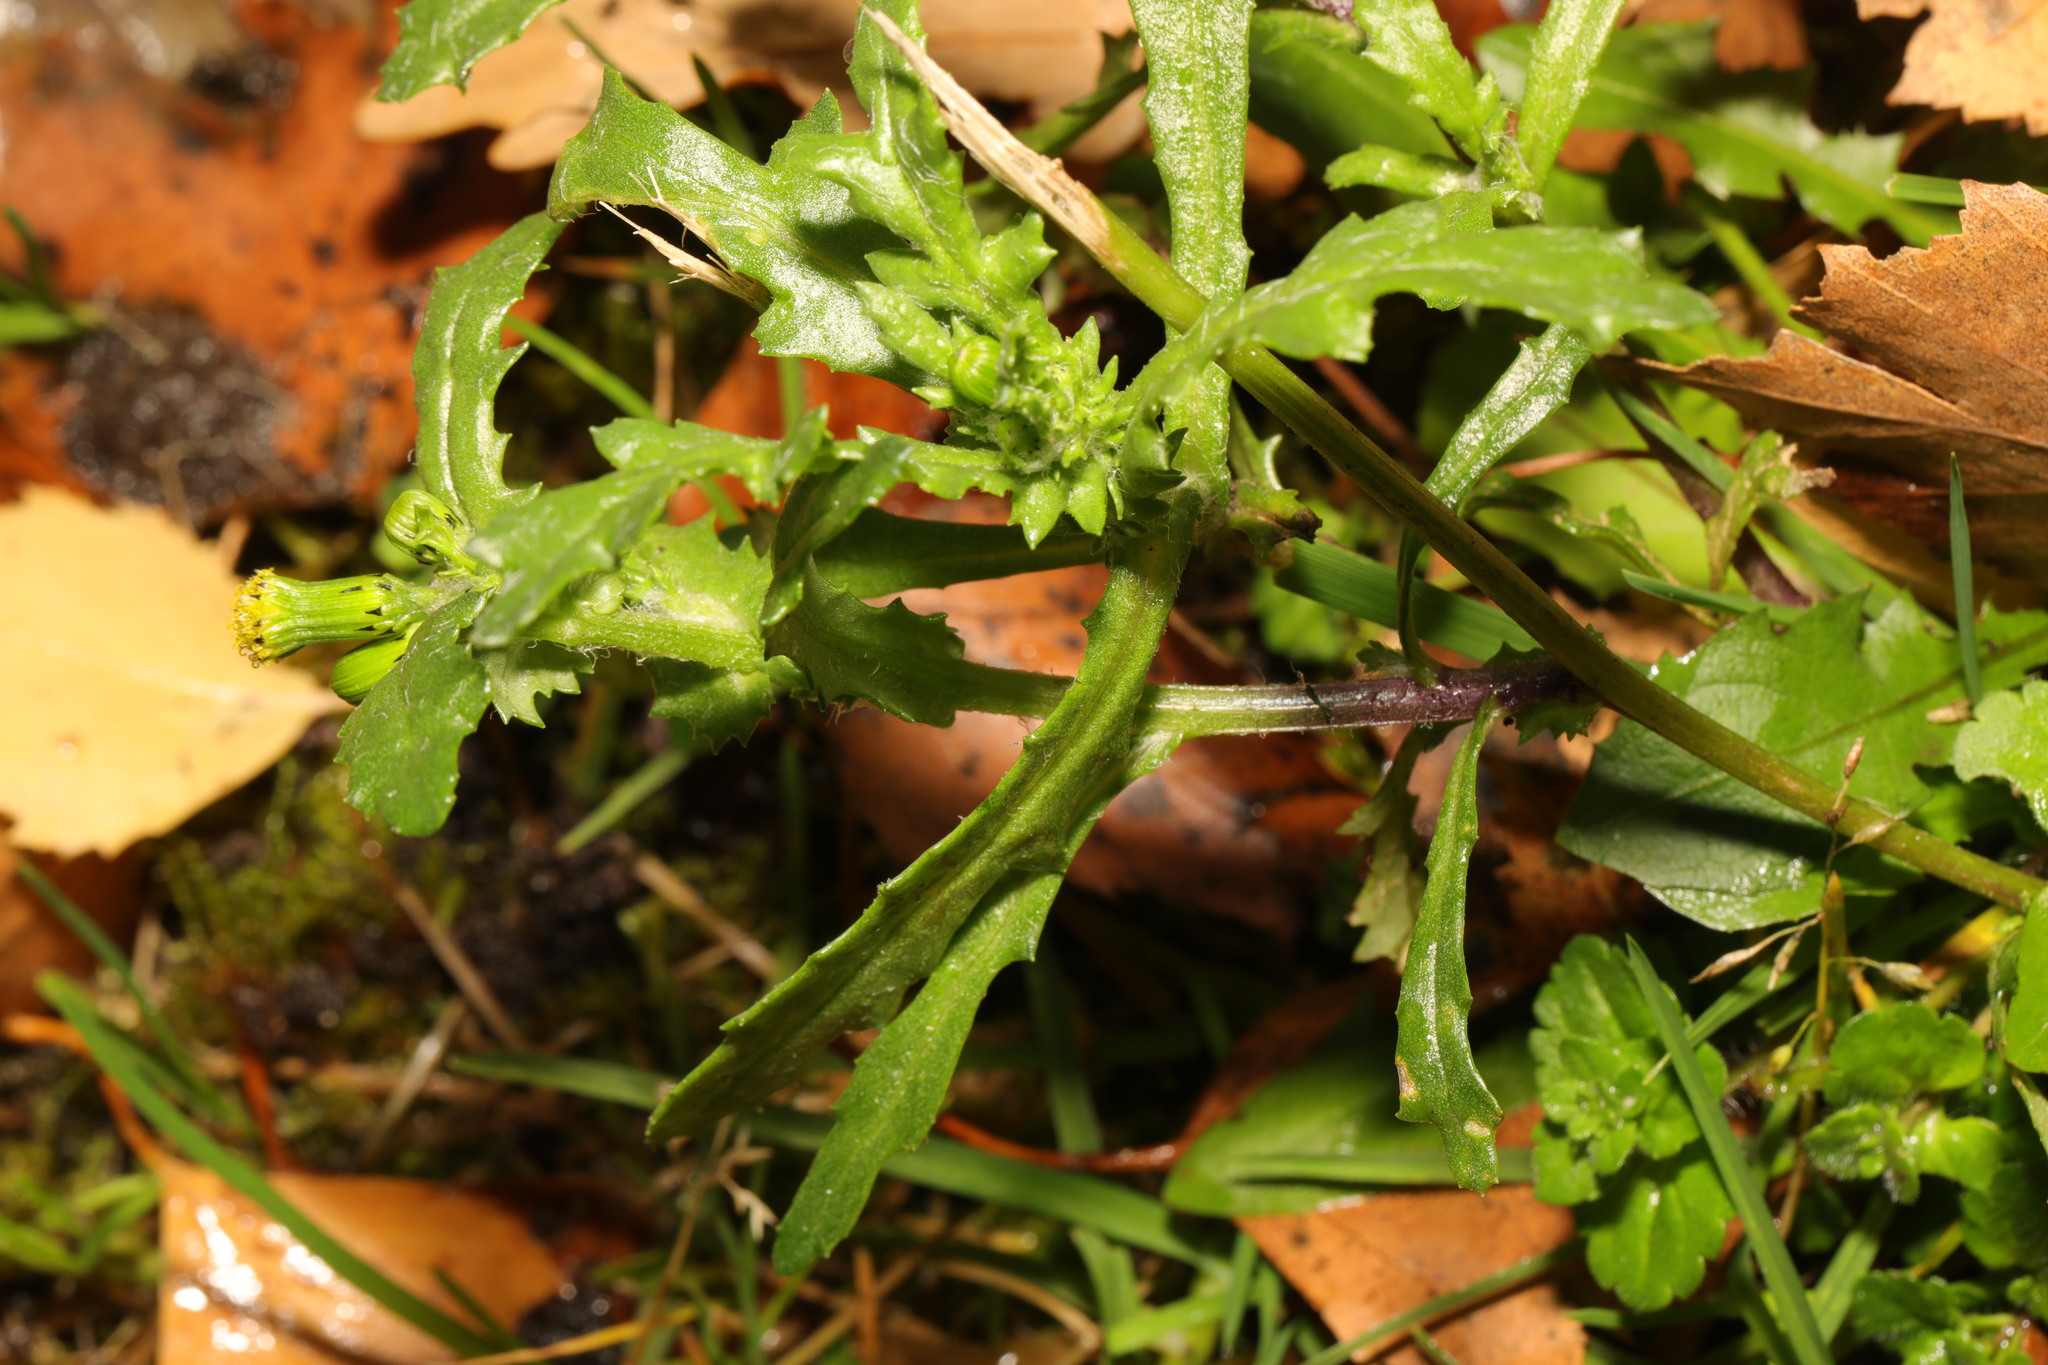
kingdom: Plantae
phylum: Tracheophyta
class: Magnoliopsida
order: Asterales
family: Asteraceae
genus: Senecio
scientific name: Senecio vulgaris
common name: Old-man-in-the-spring
